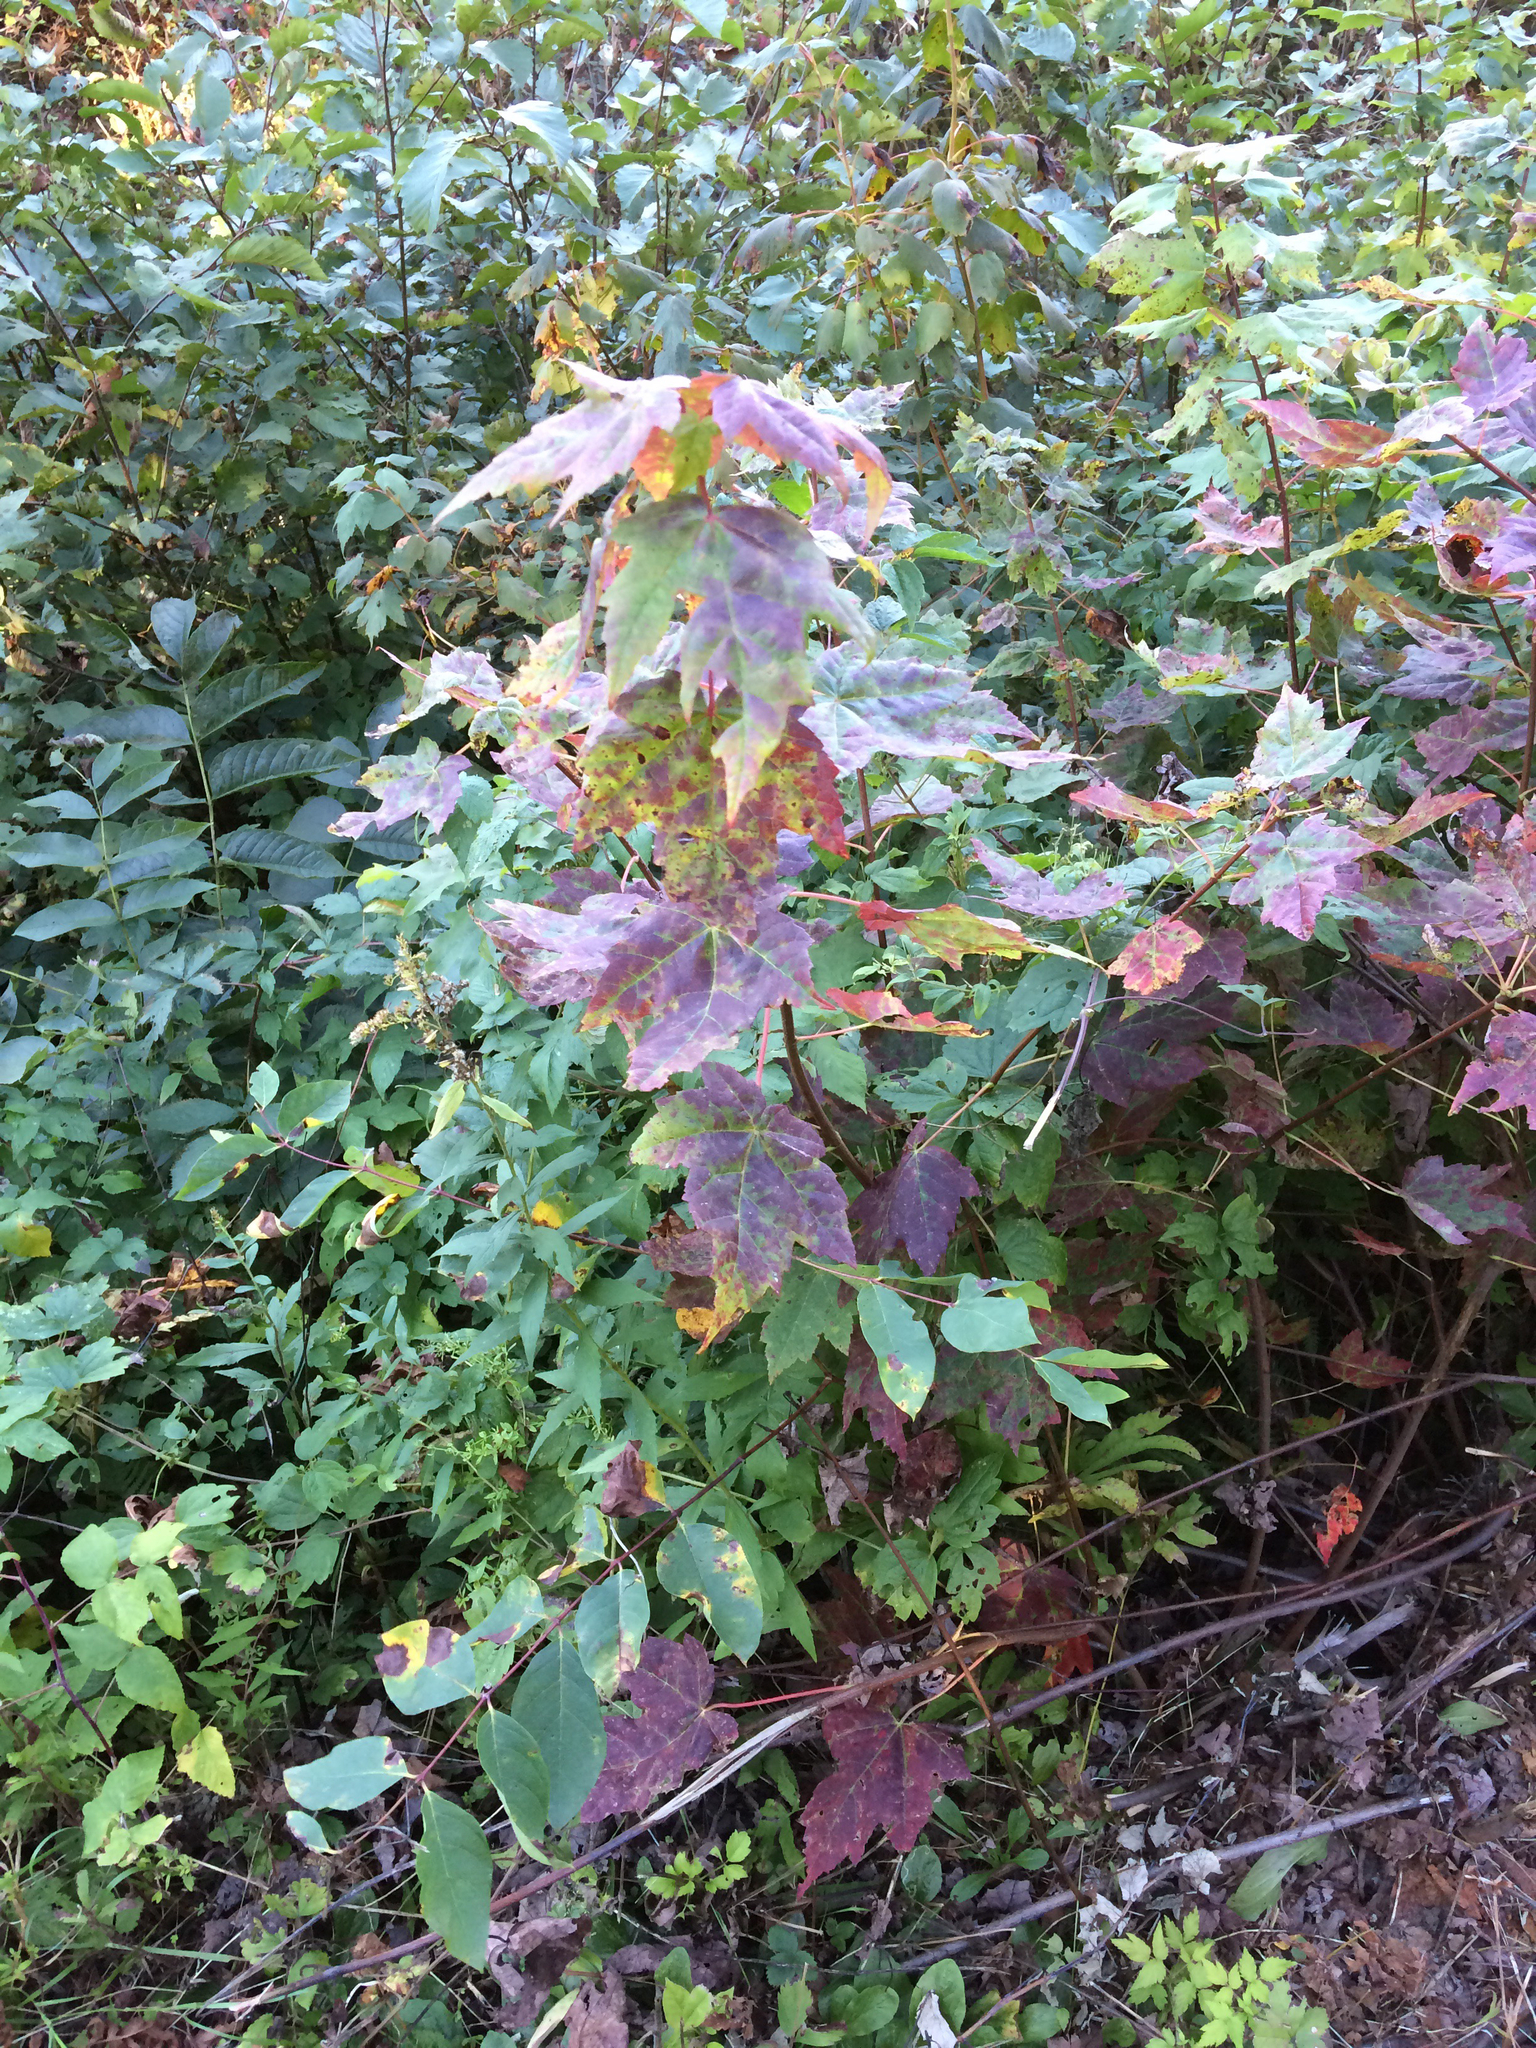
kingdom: Plantae
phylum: Tracheophyta
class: Magnoliopsida
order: Sapindales
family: Sapindaceae
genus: Acer
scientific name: Acer rubrum
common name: Red maple
